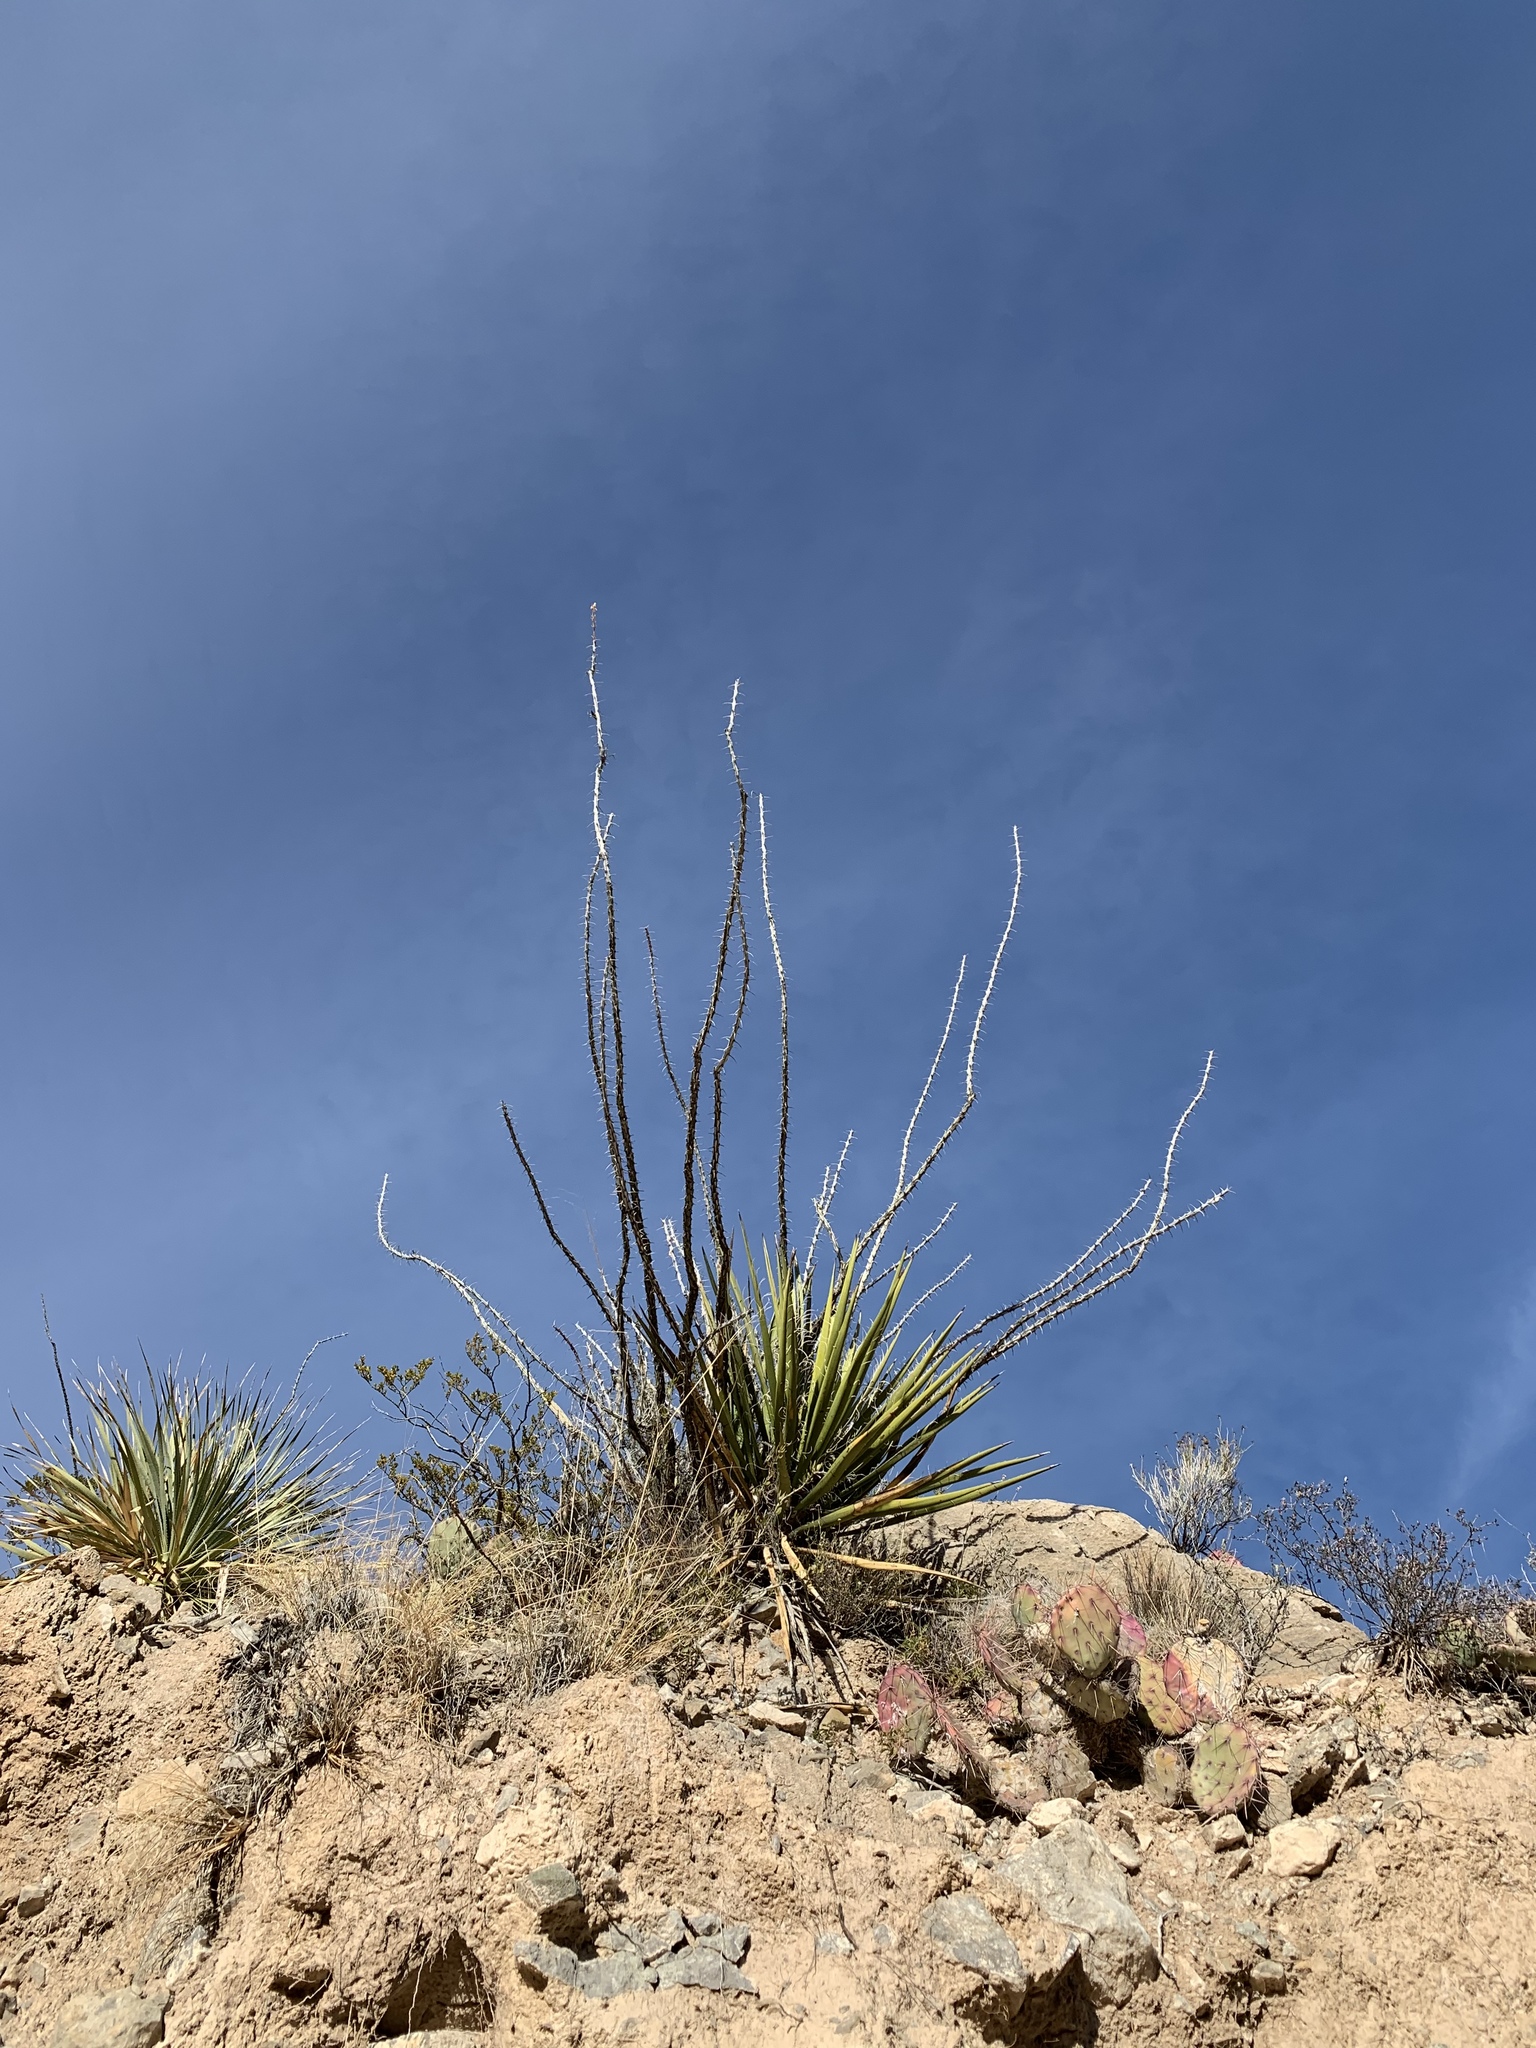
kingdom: Plantae
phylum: Tracheophyta
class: Magnoliopsida
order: Ericales
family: Fouquieriaceae
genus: Fouquieria
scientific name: Fouquieria splendens
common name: Vine-cactus
